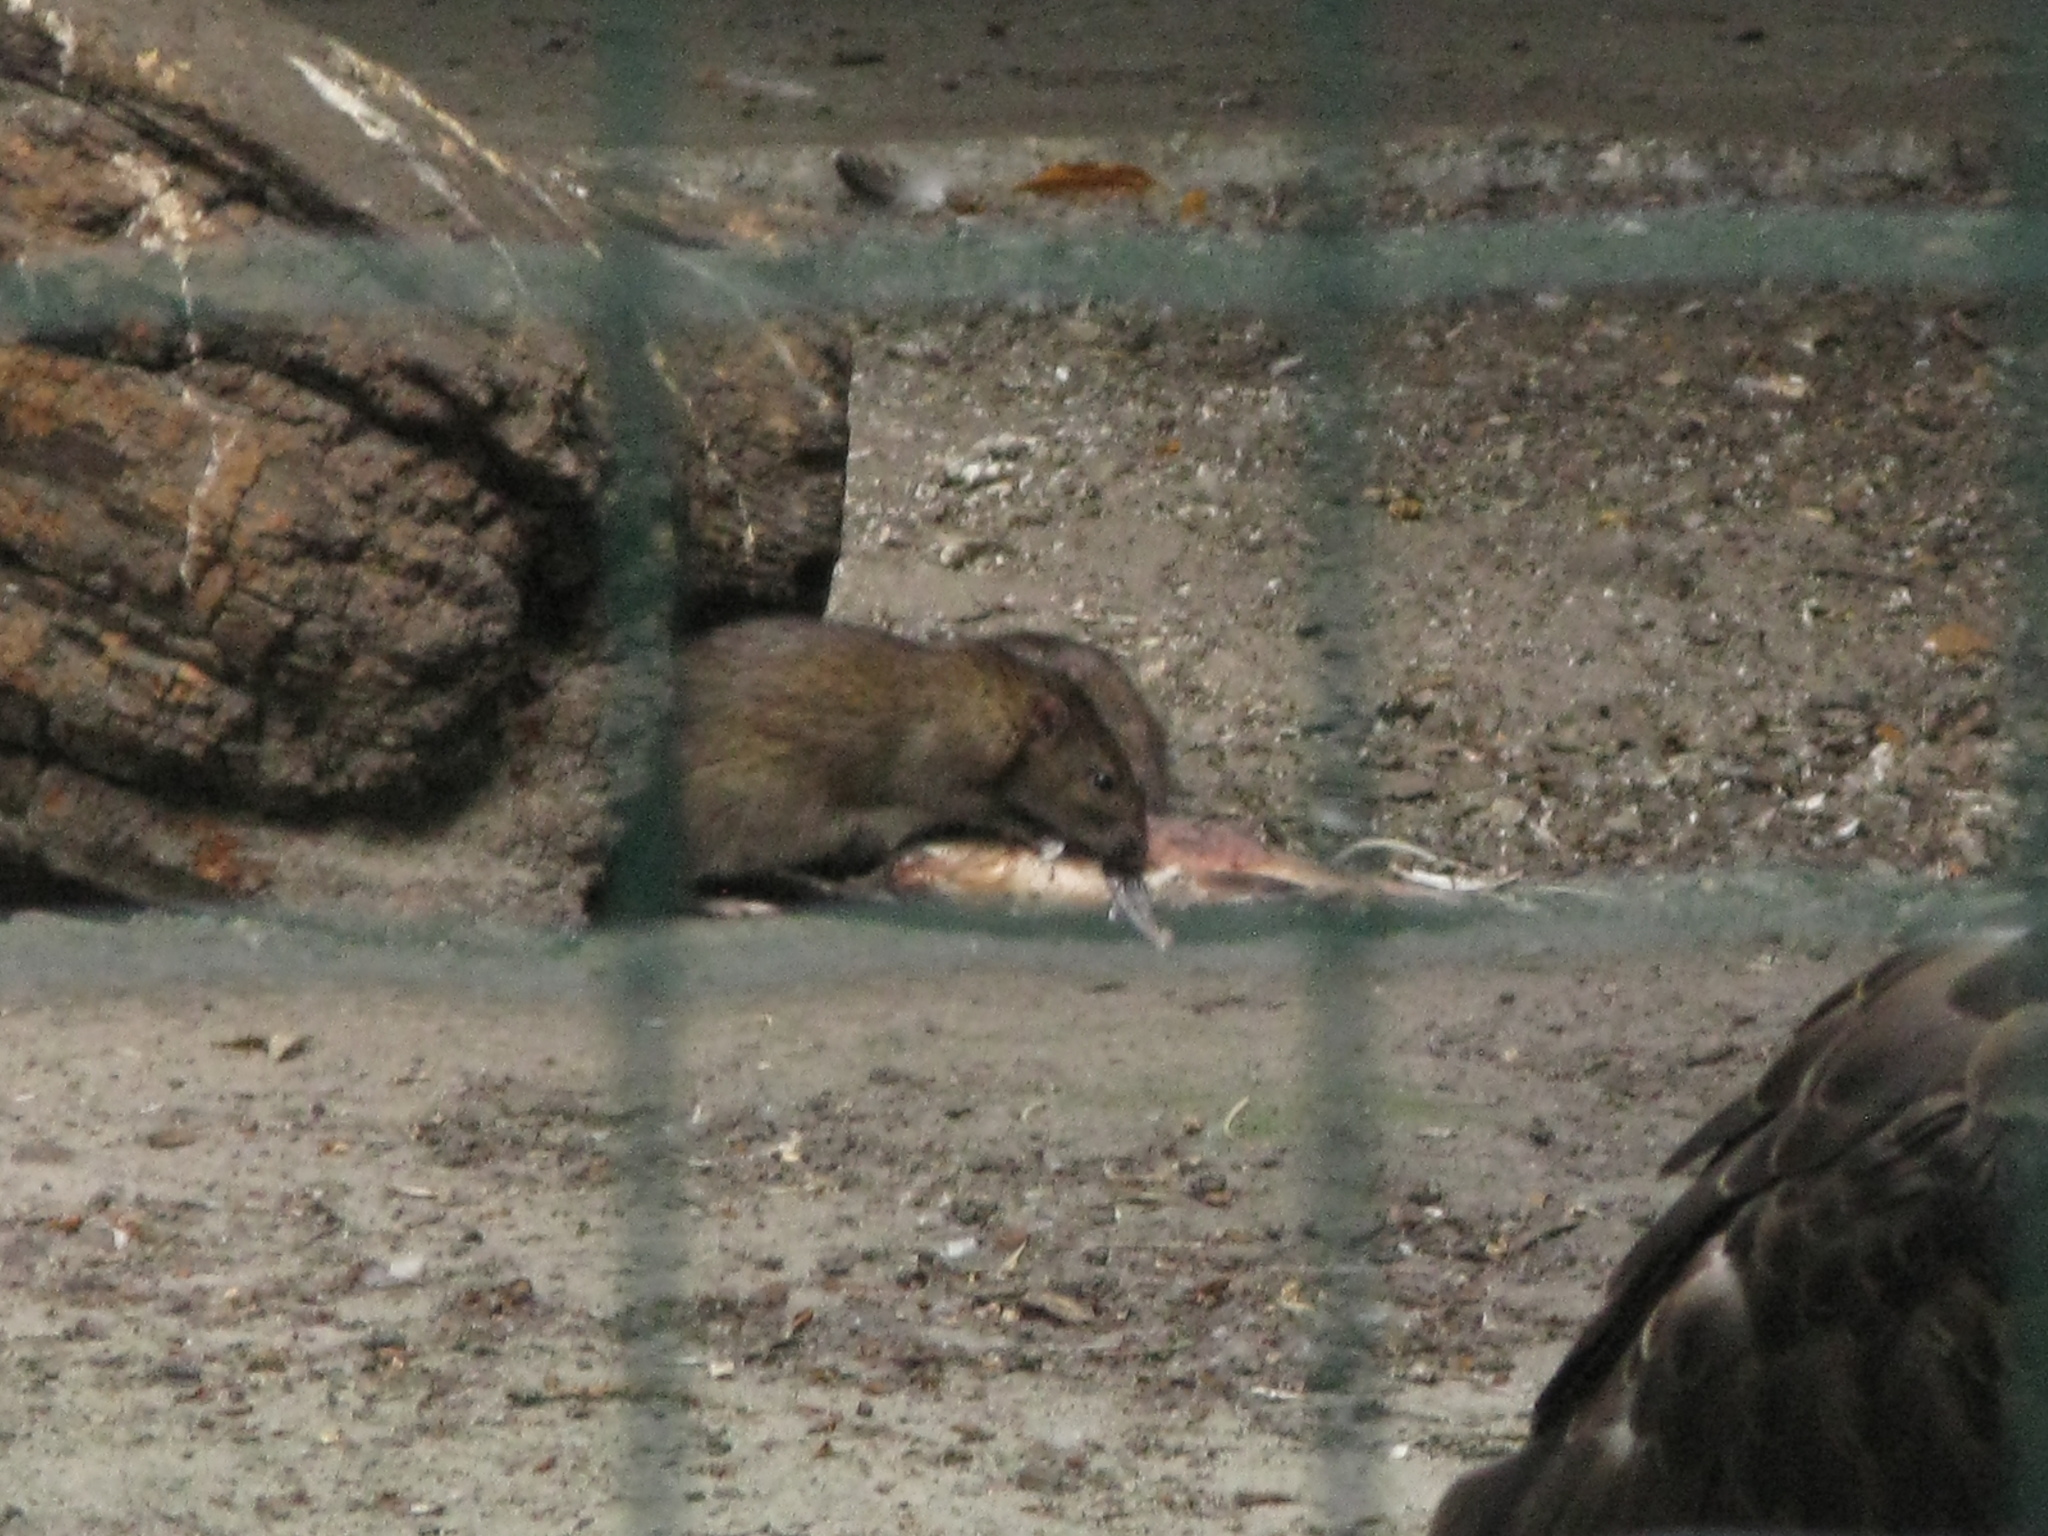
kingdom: Animalia
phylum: Chordata
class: Mammalia
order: Rodentia
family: Muridae
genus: Rattus
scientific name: Rattus norvegicus
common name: Brown rat
